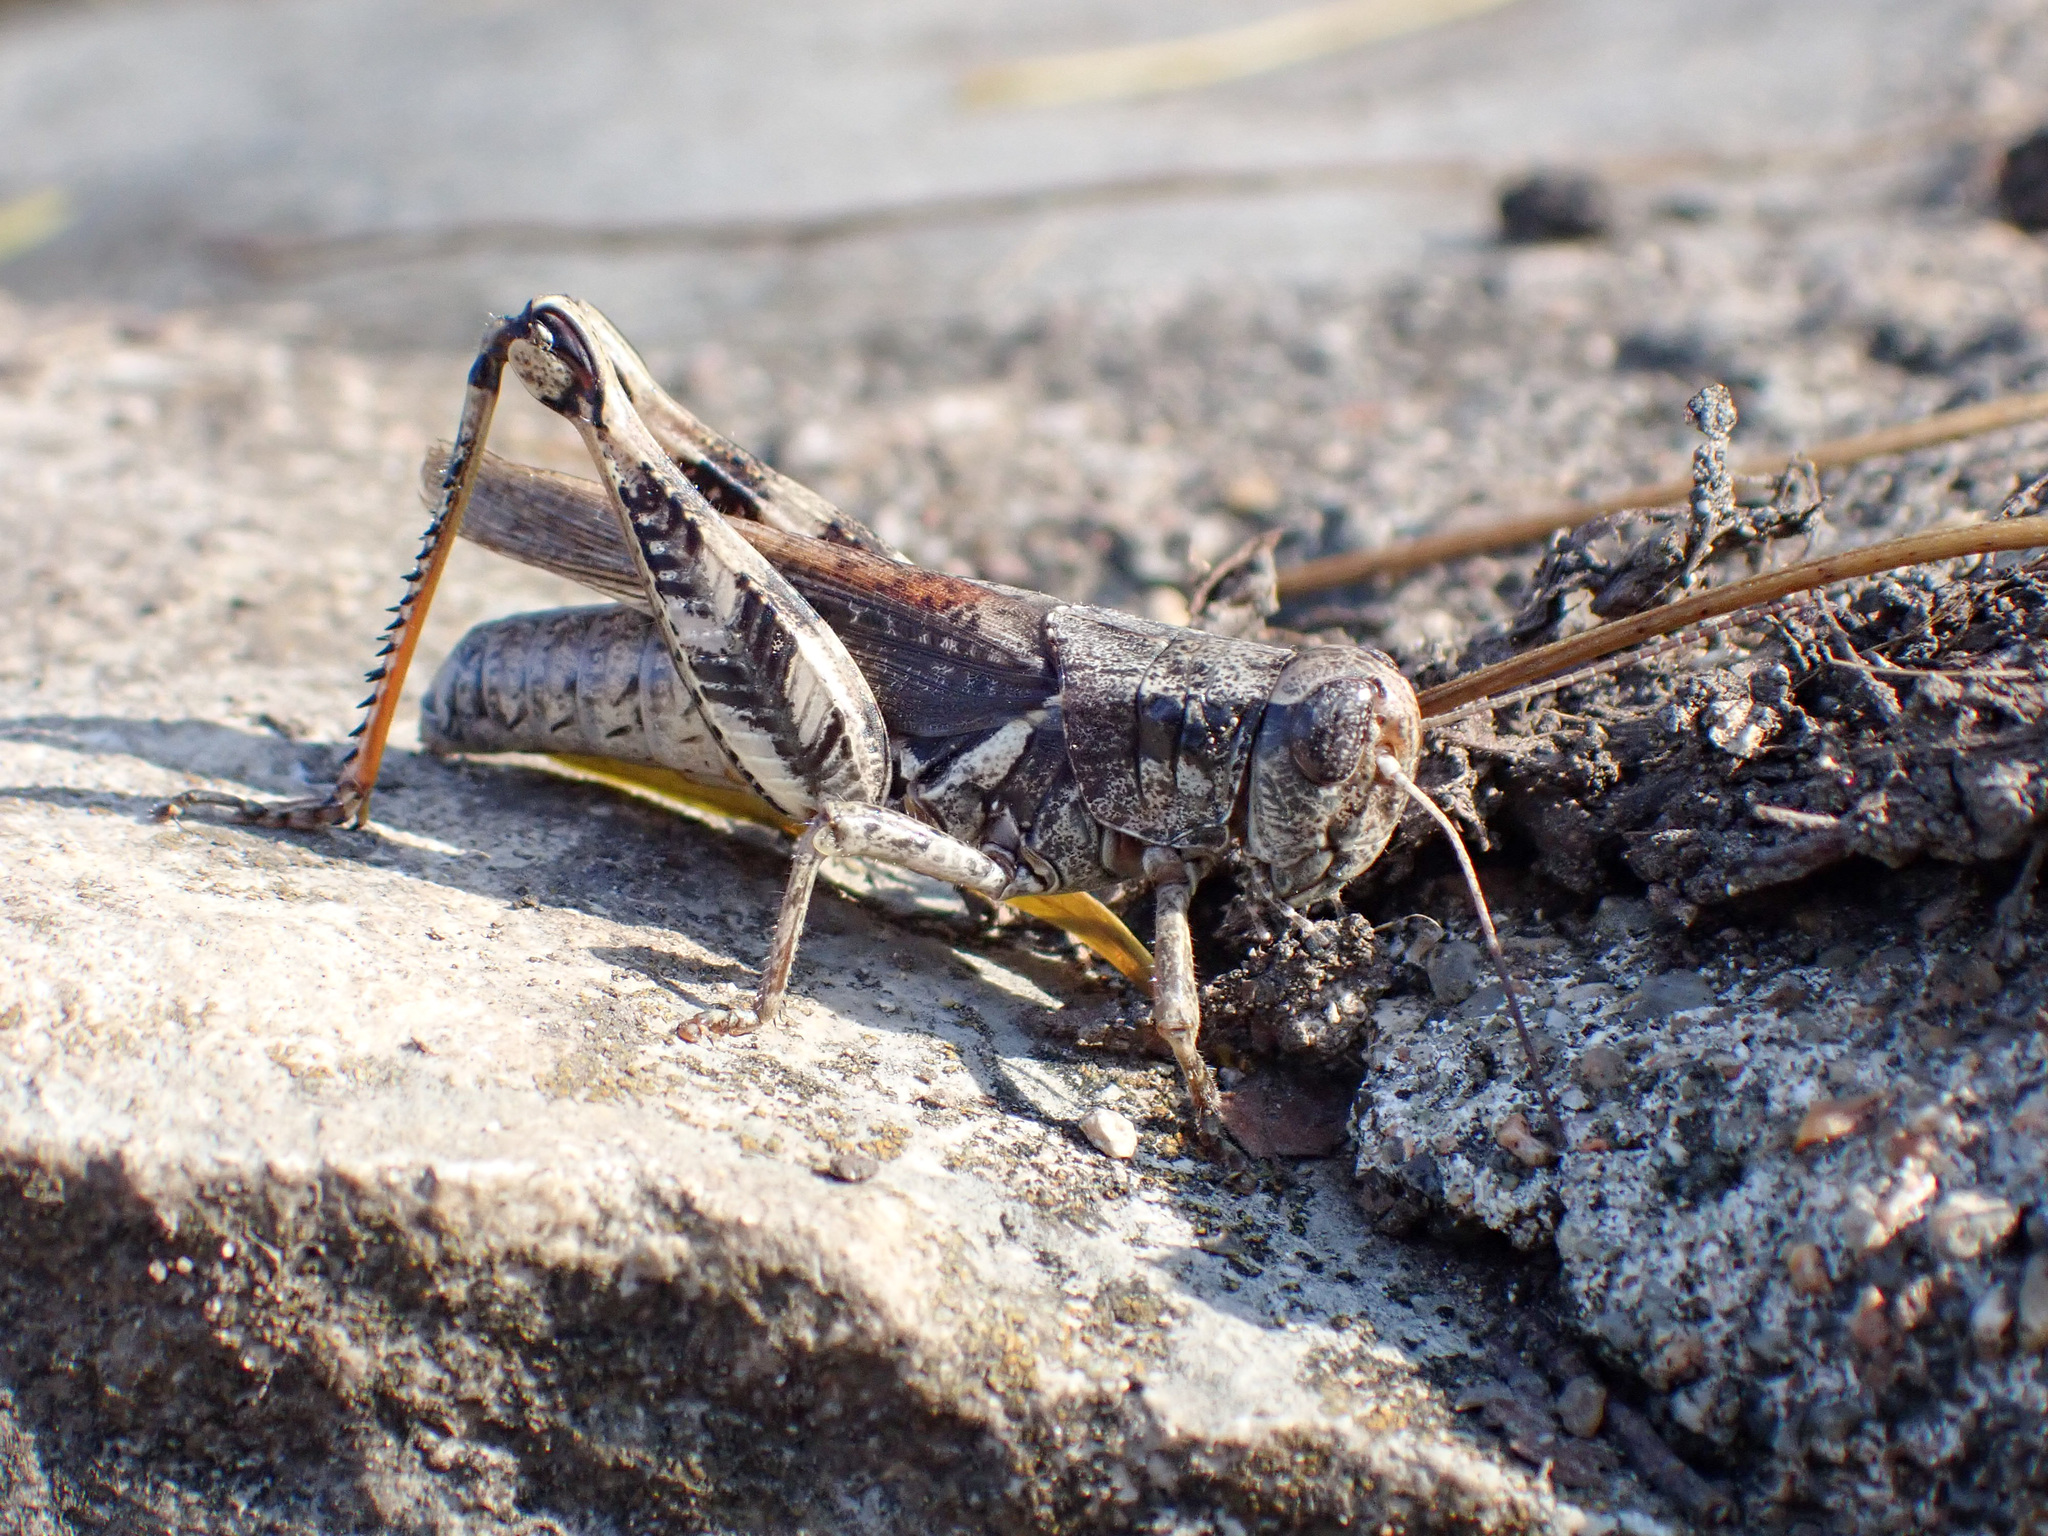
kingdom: Animalia
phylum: Arthropoda
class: Insecta
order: Orthoptera
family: Acrididae
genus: Melanoplus
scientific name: Melanoplus ponderosus
